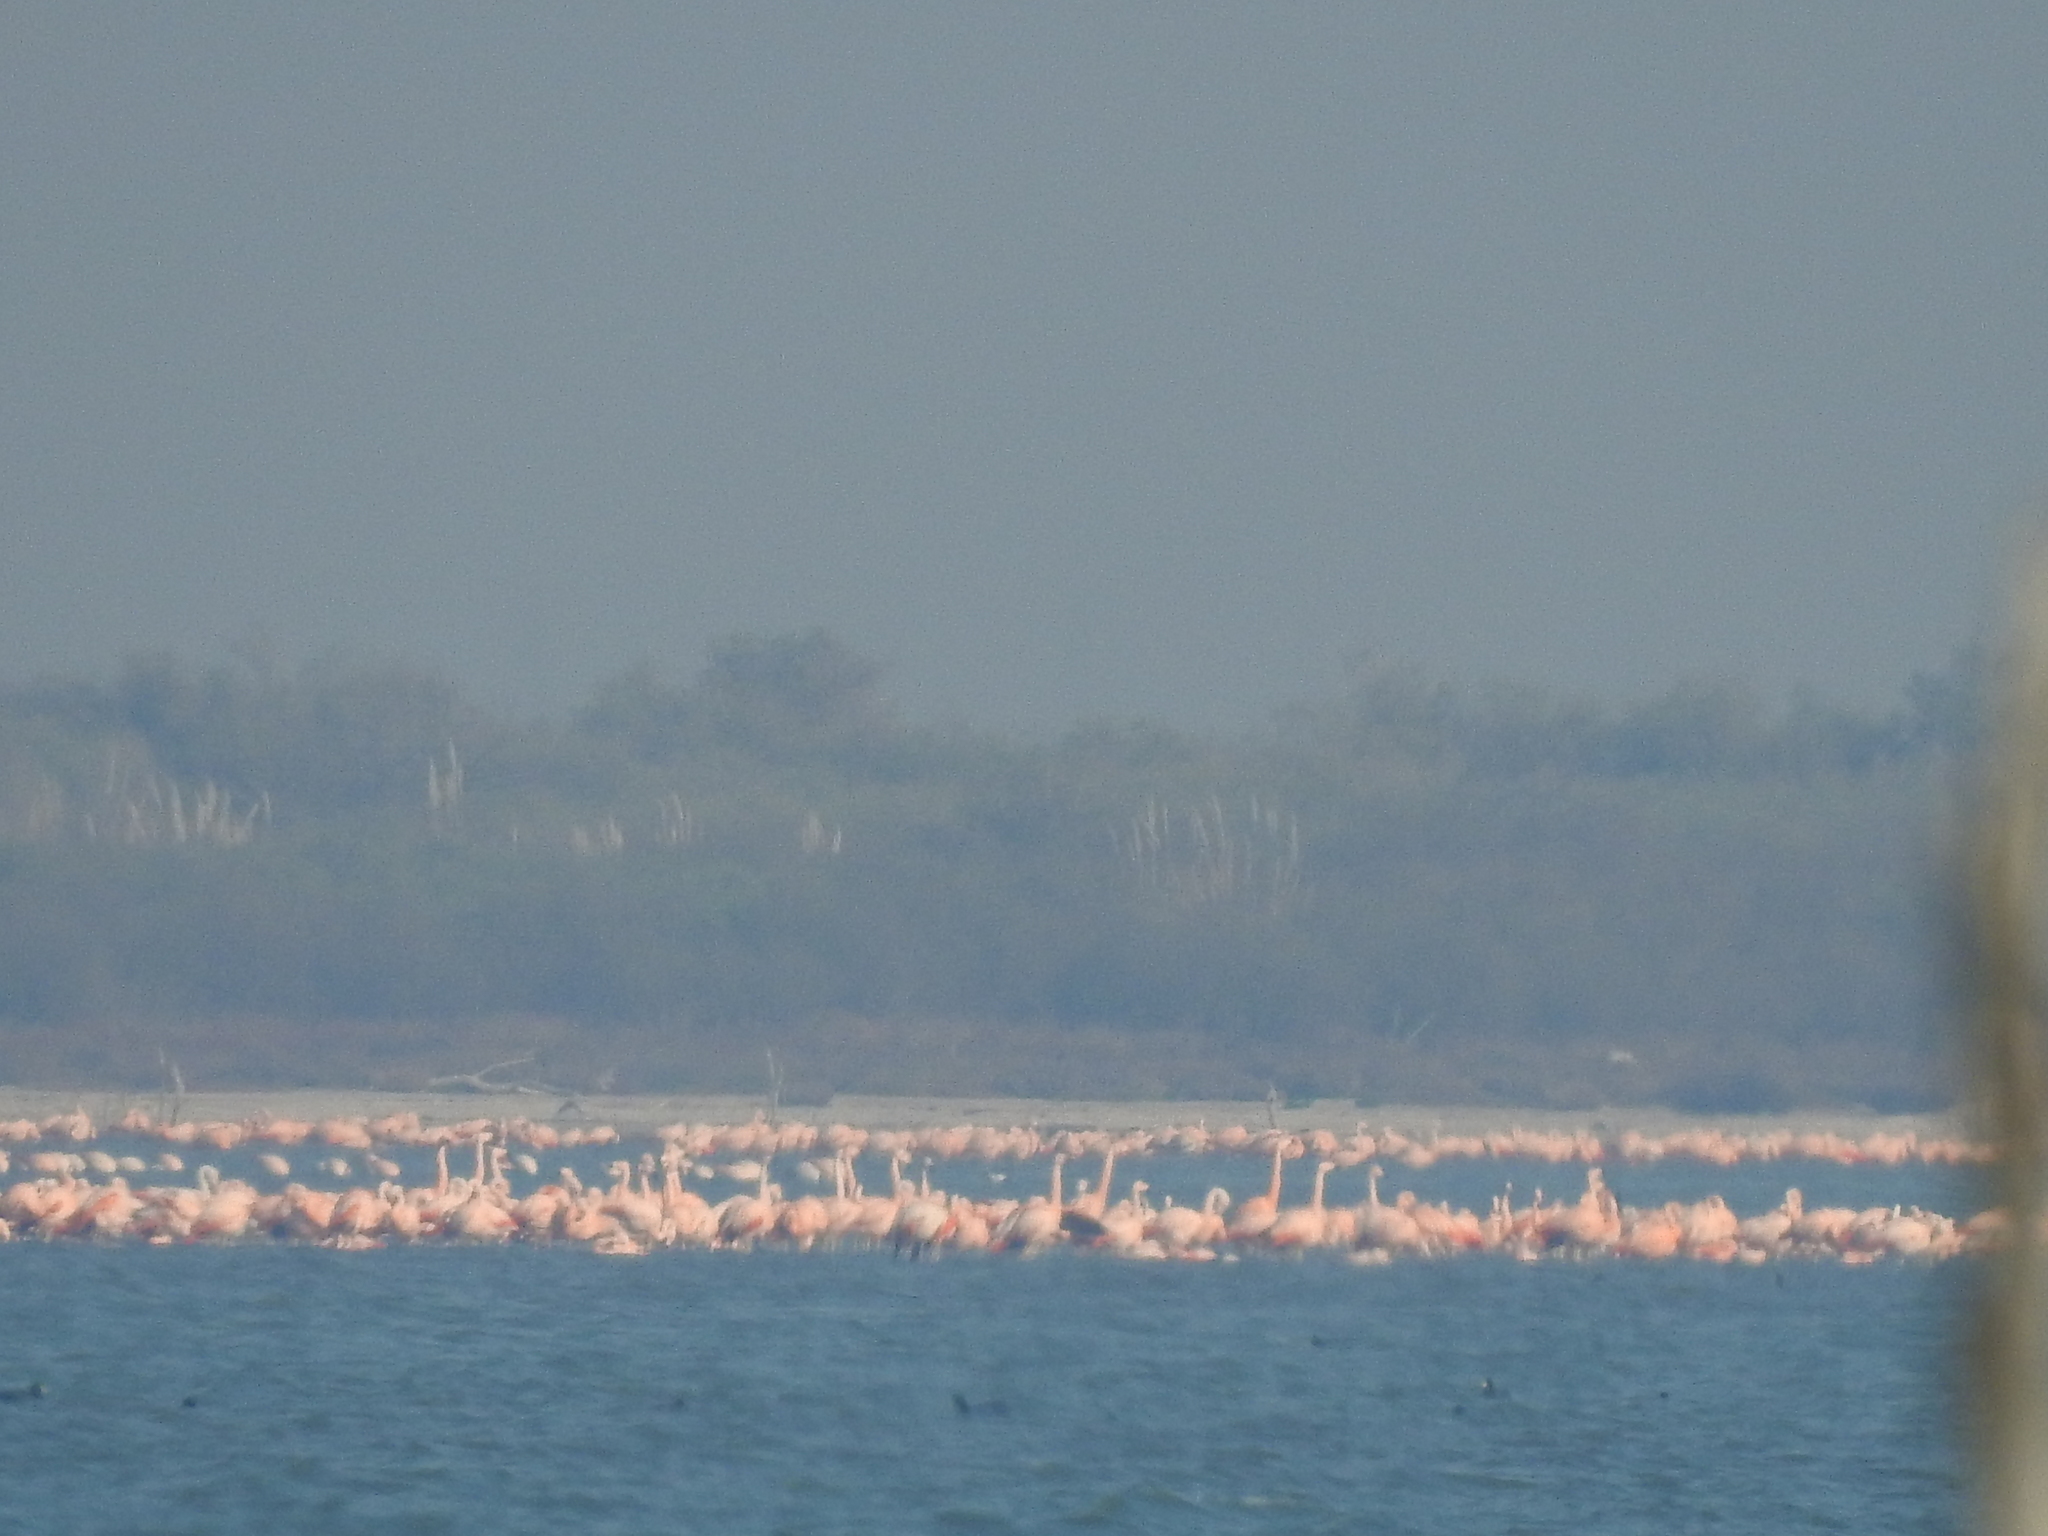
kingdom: Animalia
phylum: Chordata
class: Aves
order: Phoenicopteriformes
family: Phoenicopteridae
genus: Phoenicopterus
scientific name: Phoenicopterus chilensis
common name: Chilean flamingo
